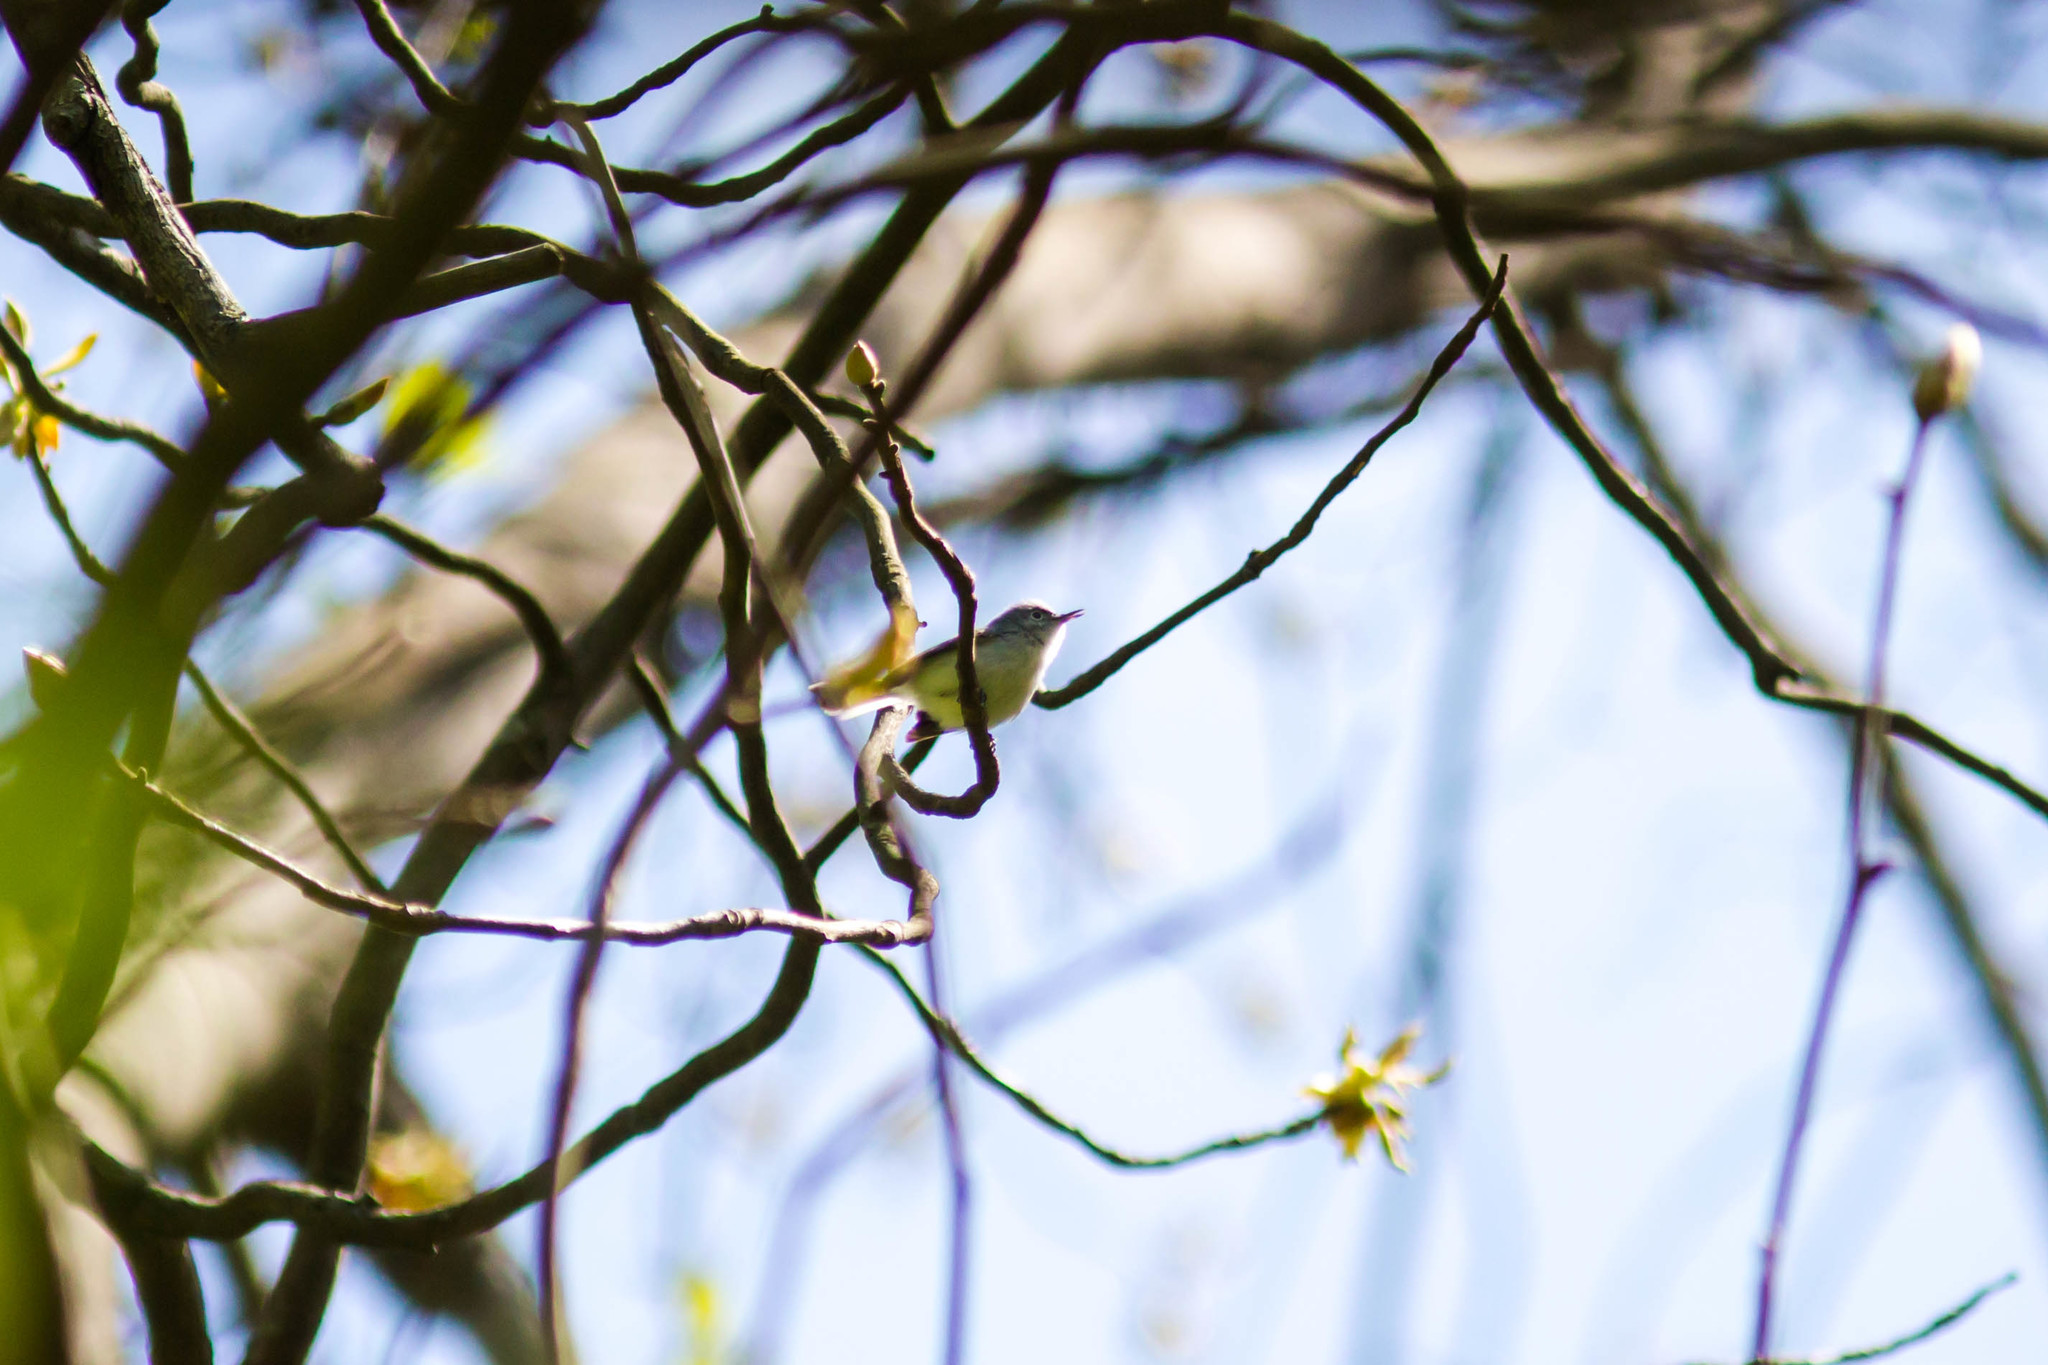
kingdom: Animalia
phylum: Chordata
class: Aves
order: Passeriformes
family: Parulidae
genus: Leiothlypis
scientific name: Leiothlypis ruficapilla
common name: Nashville warbler
